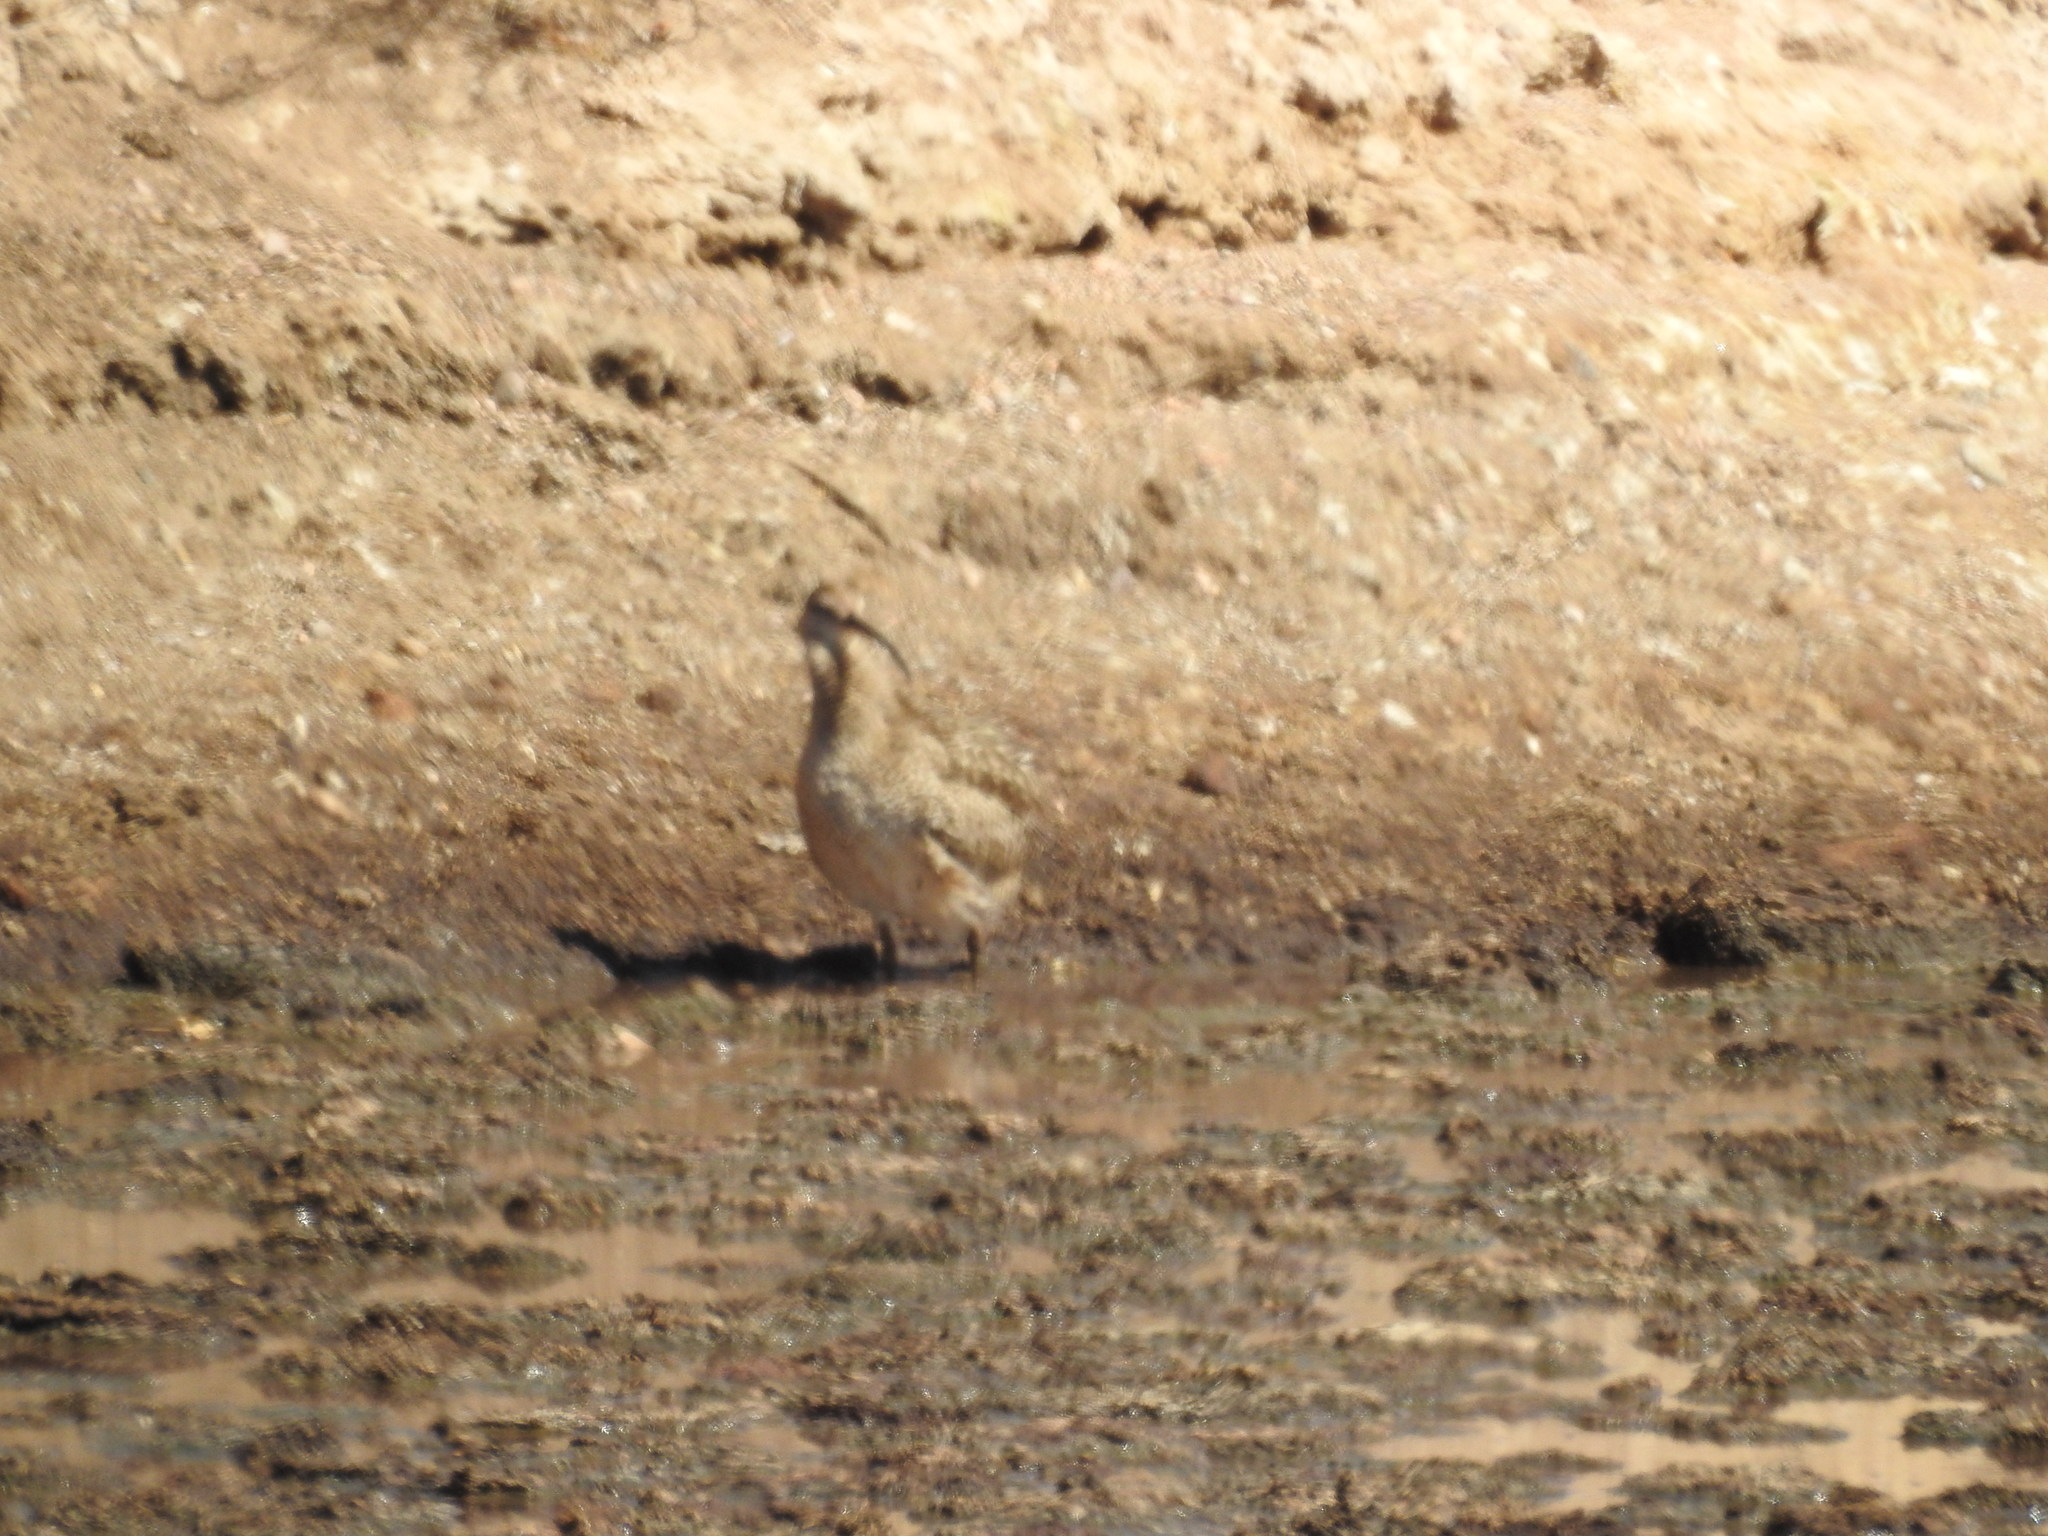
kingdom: Animalia
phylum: Chordata
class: Aves
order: Charadriiformes
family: Scolopacidae
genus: Numenius
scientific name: Numenius americanus
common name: Long-billed curlew
